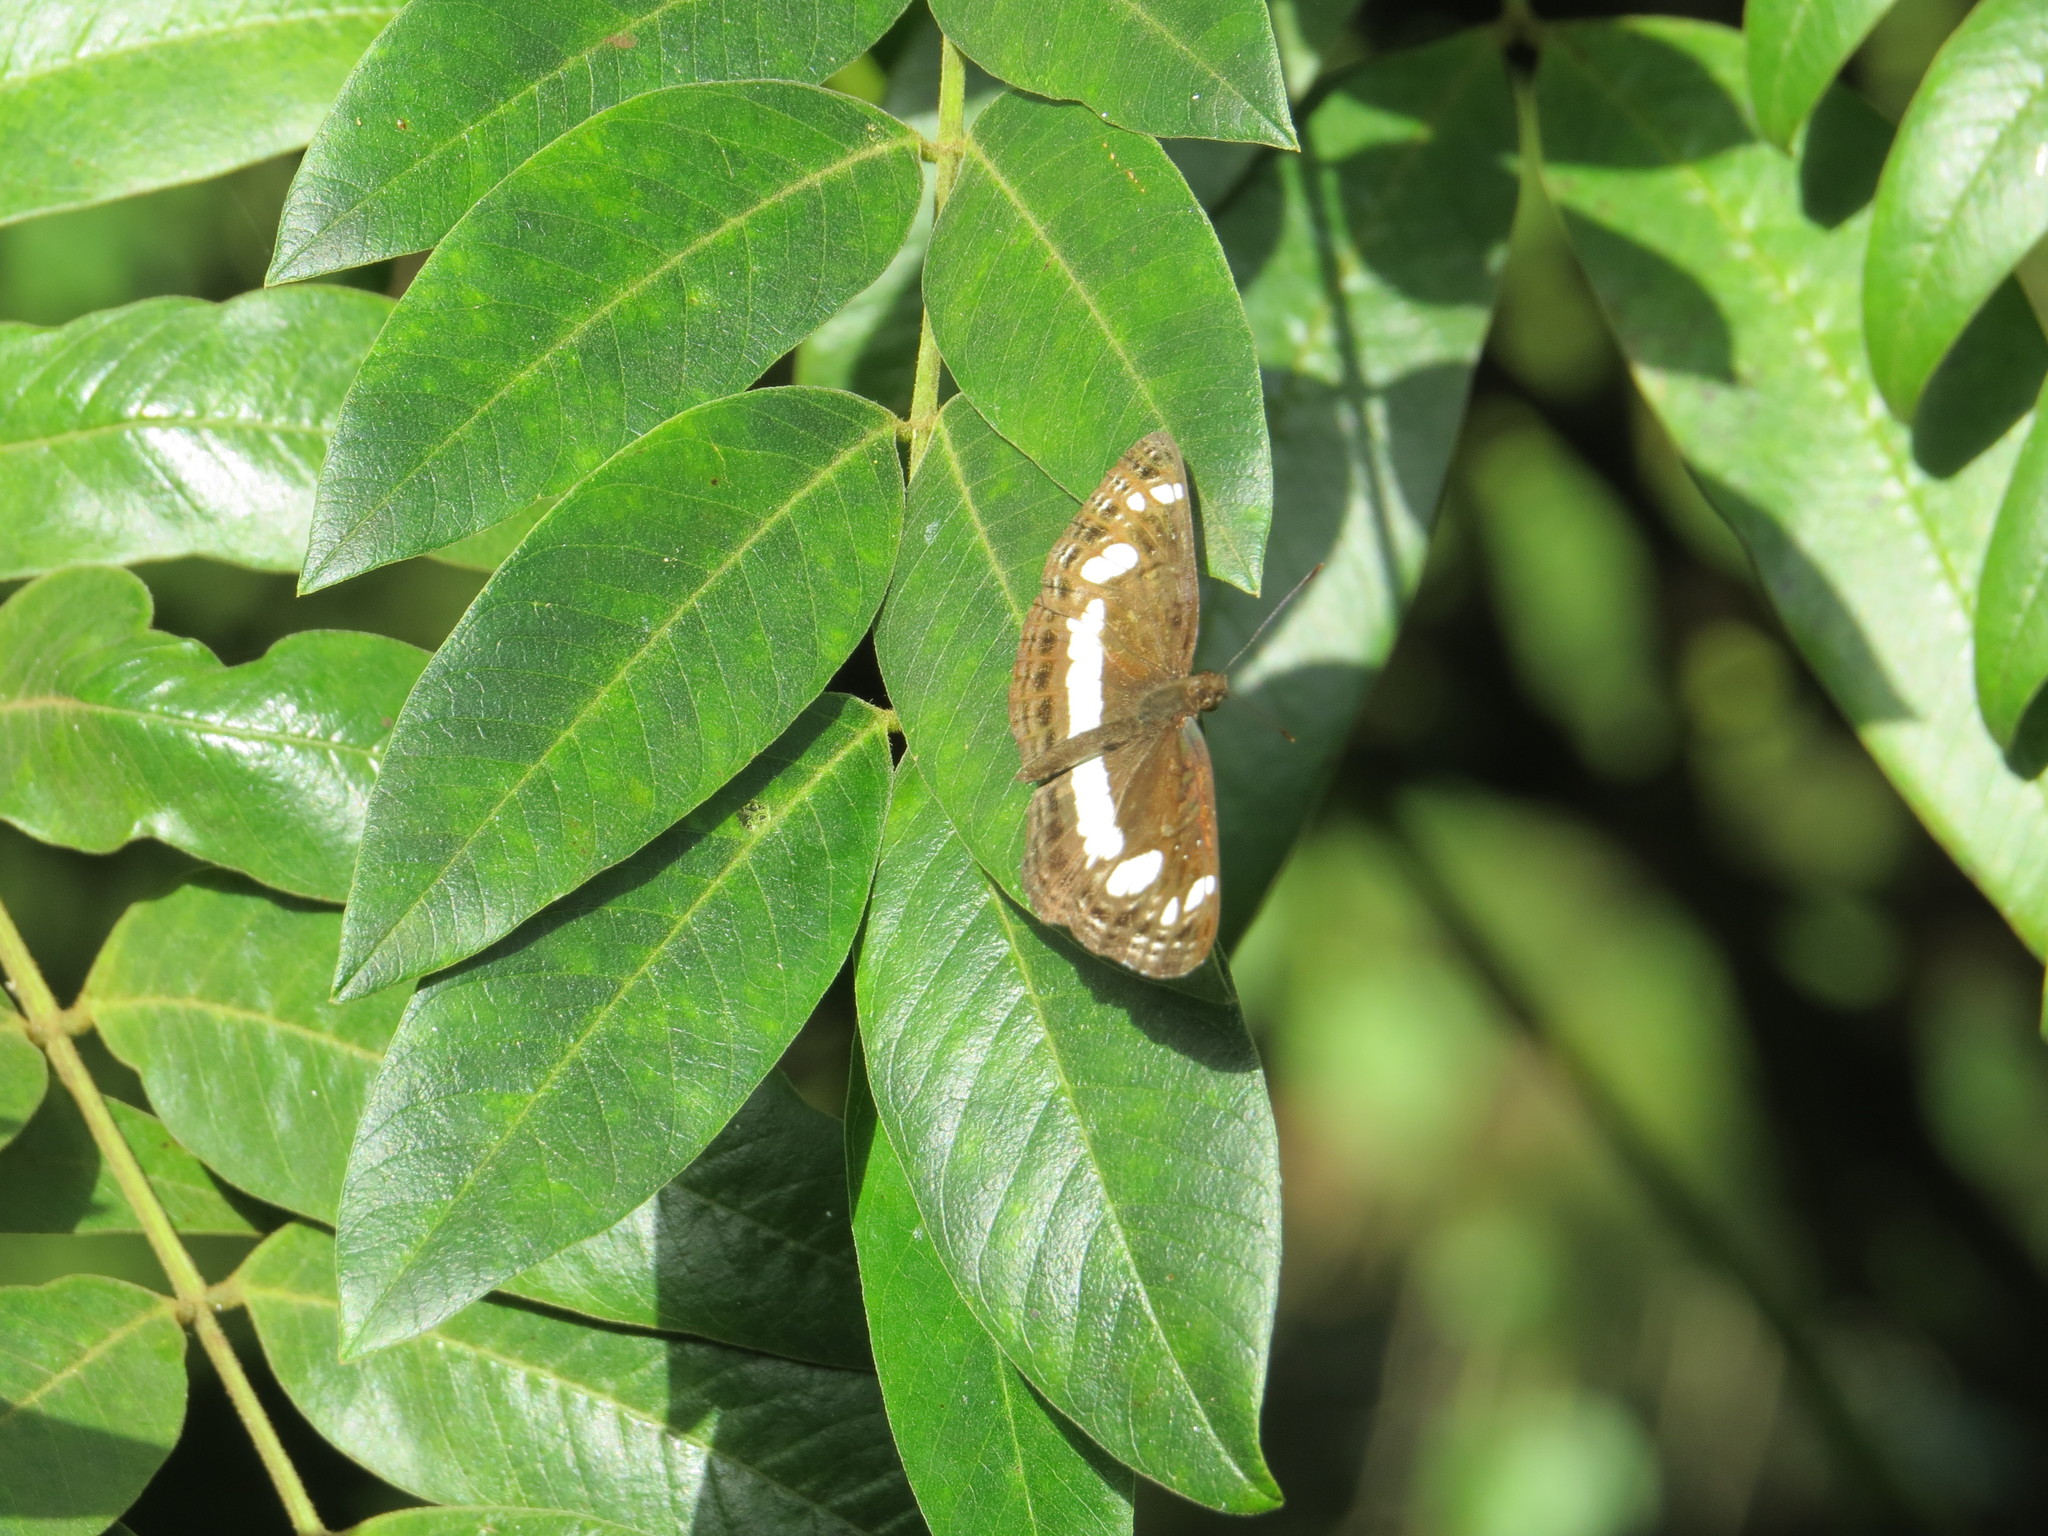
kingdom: Animalia
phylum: Arthropoda
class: Insecta
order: Lepidoptera
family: Nymphalidae
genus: Neptis
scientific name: Neptis saclava
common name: Small spotted sailor
